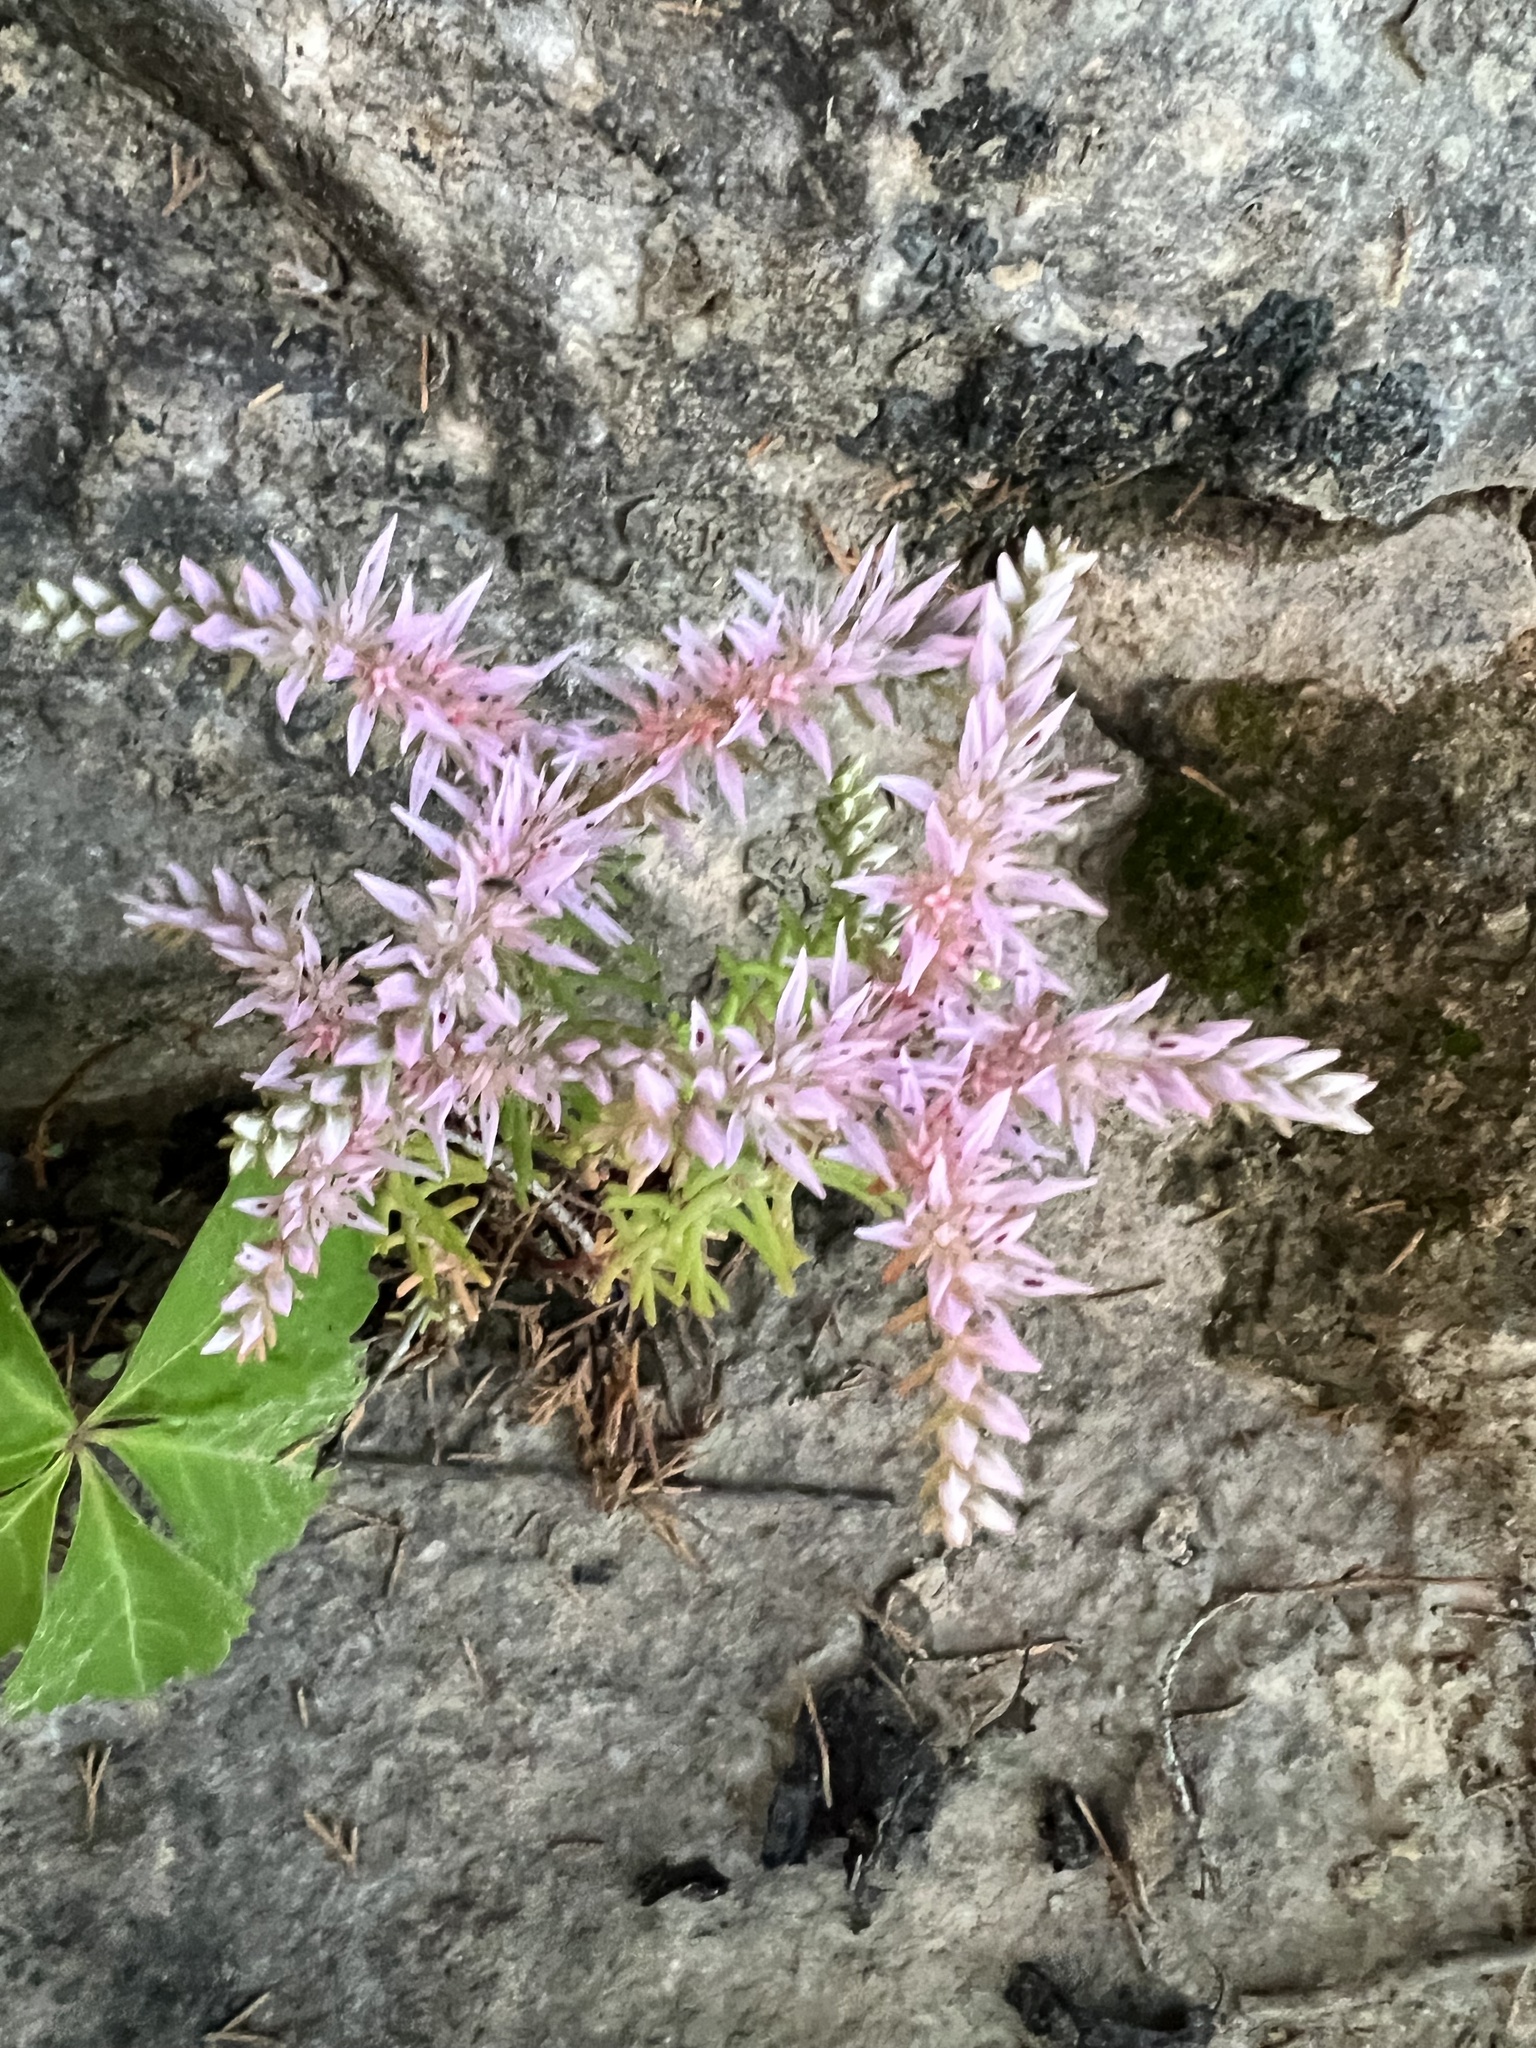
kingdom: Plantae
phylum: Tracheophyta
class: Magnoliopsida
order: Saxifragales
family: Crassulaceae
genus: Sedum
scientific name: Sedum pulchellum
